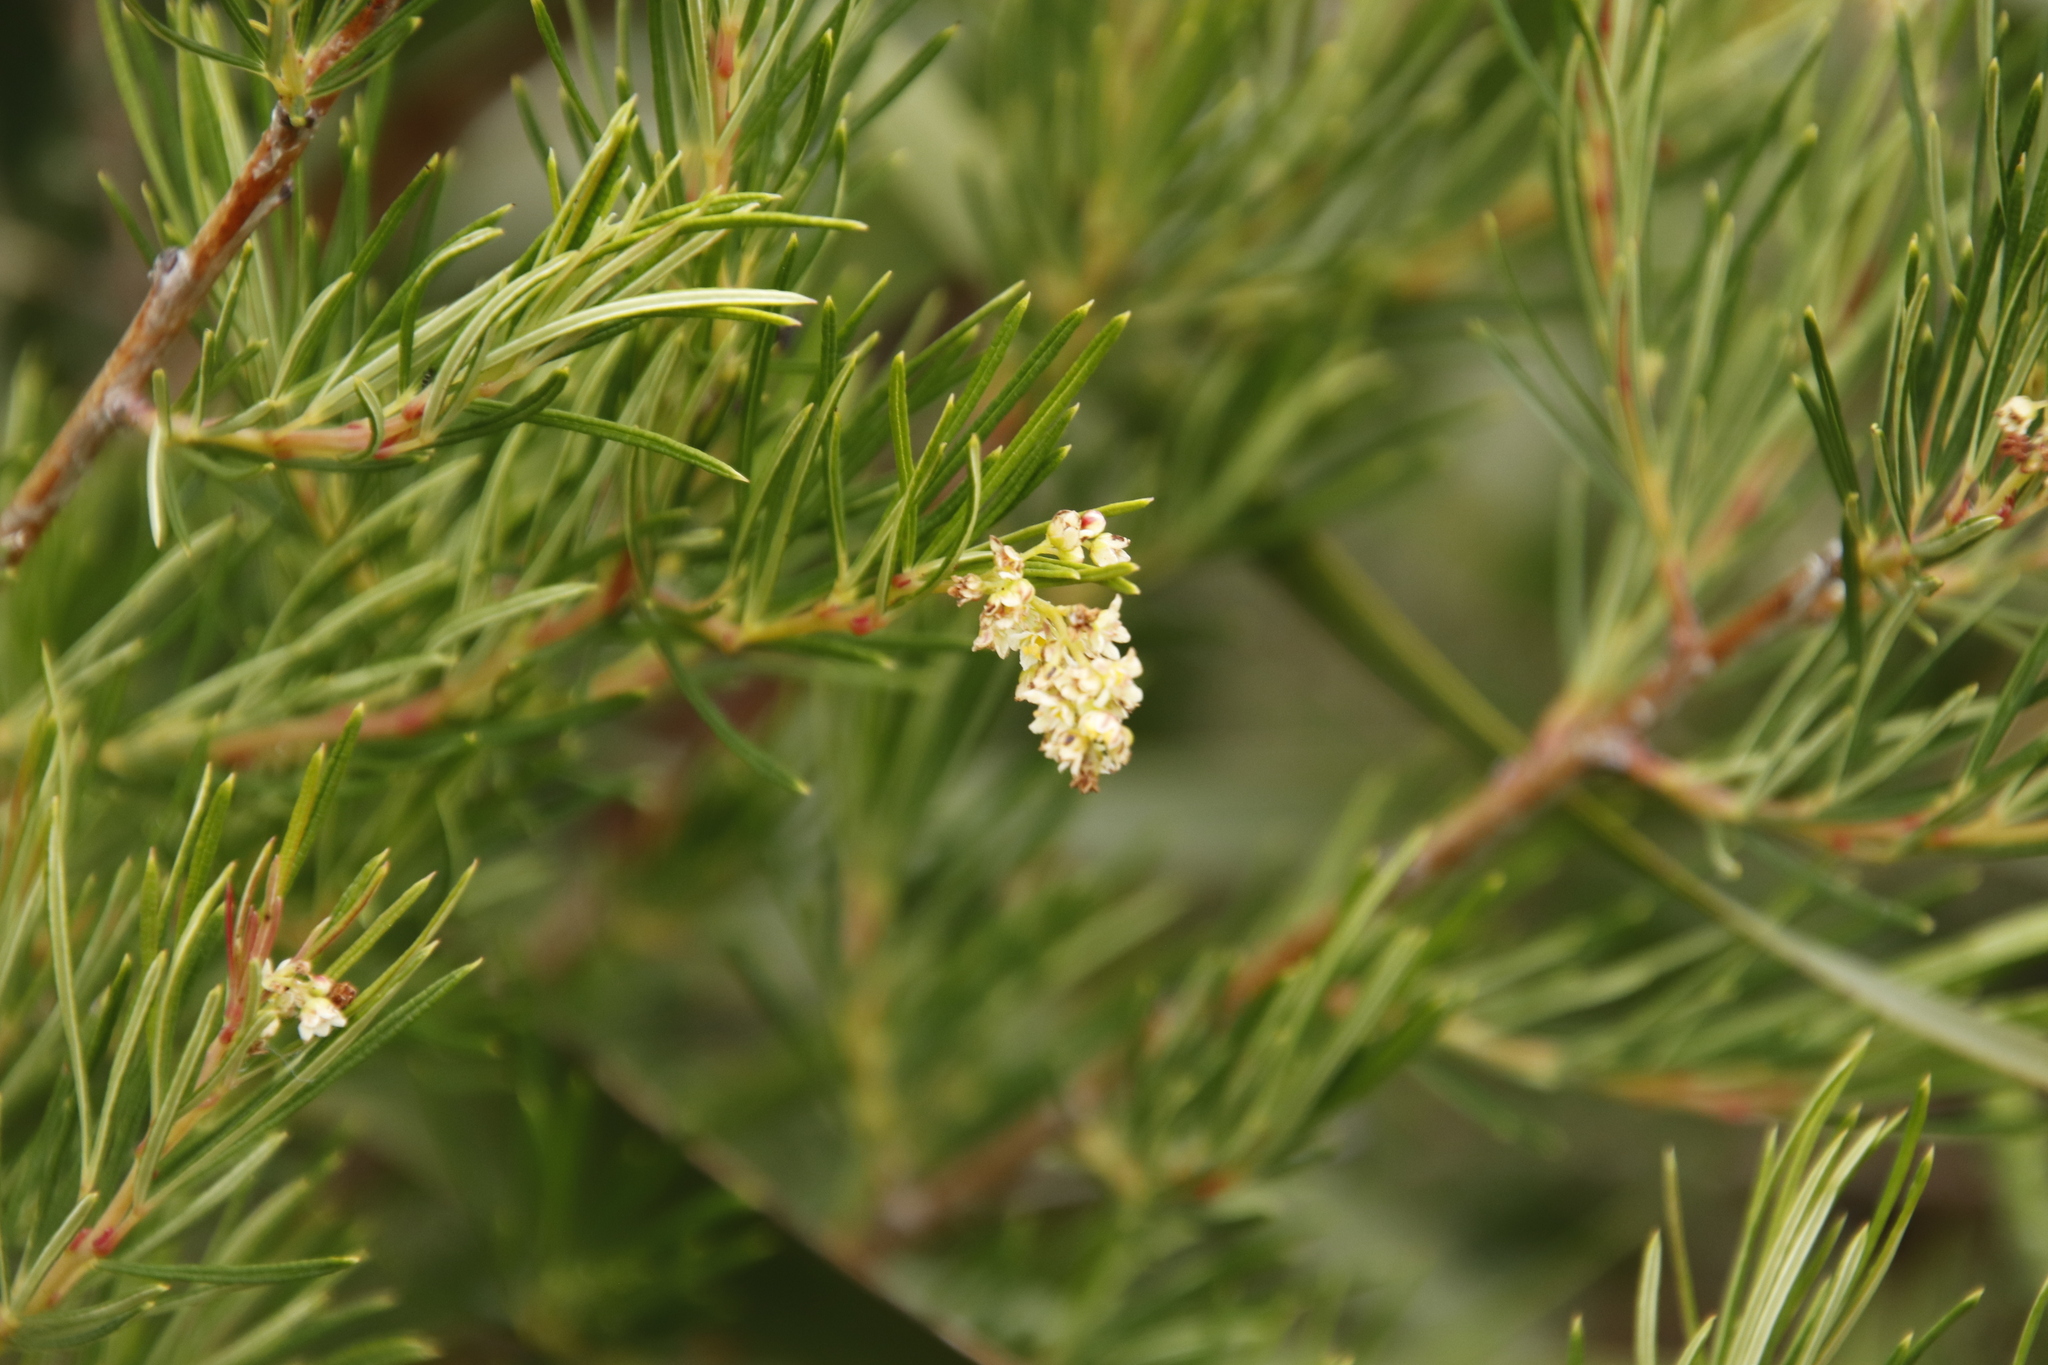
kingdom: Plantae
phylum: Tracheophyta
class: Magnoliopsida
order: Sapindales
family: Anacardiaceae
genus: Searsia
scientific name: Searsia rosmarinifolia
